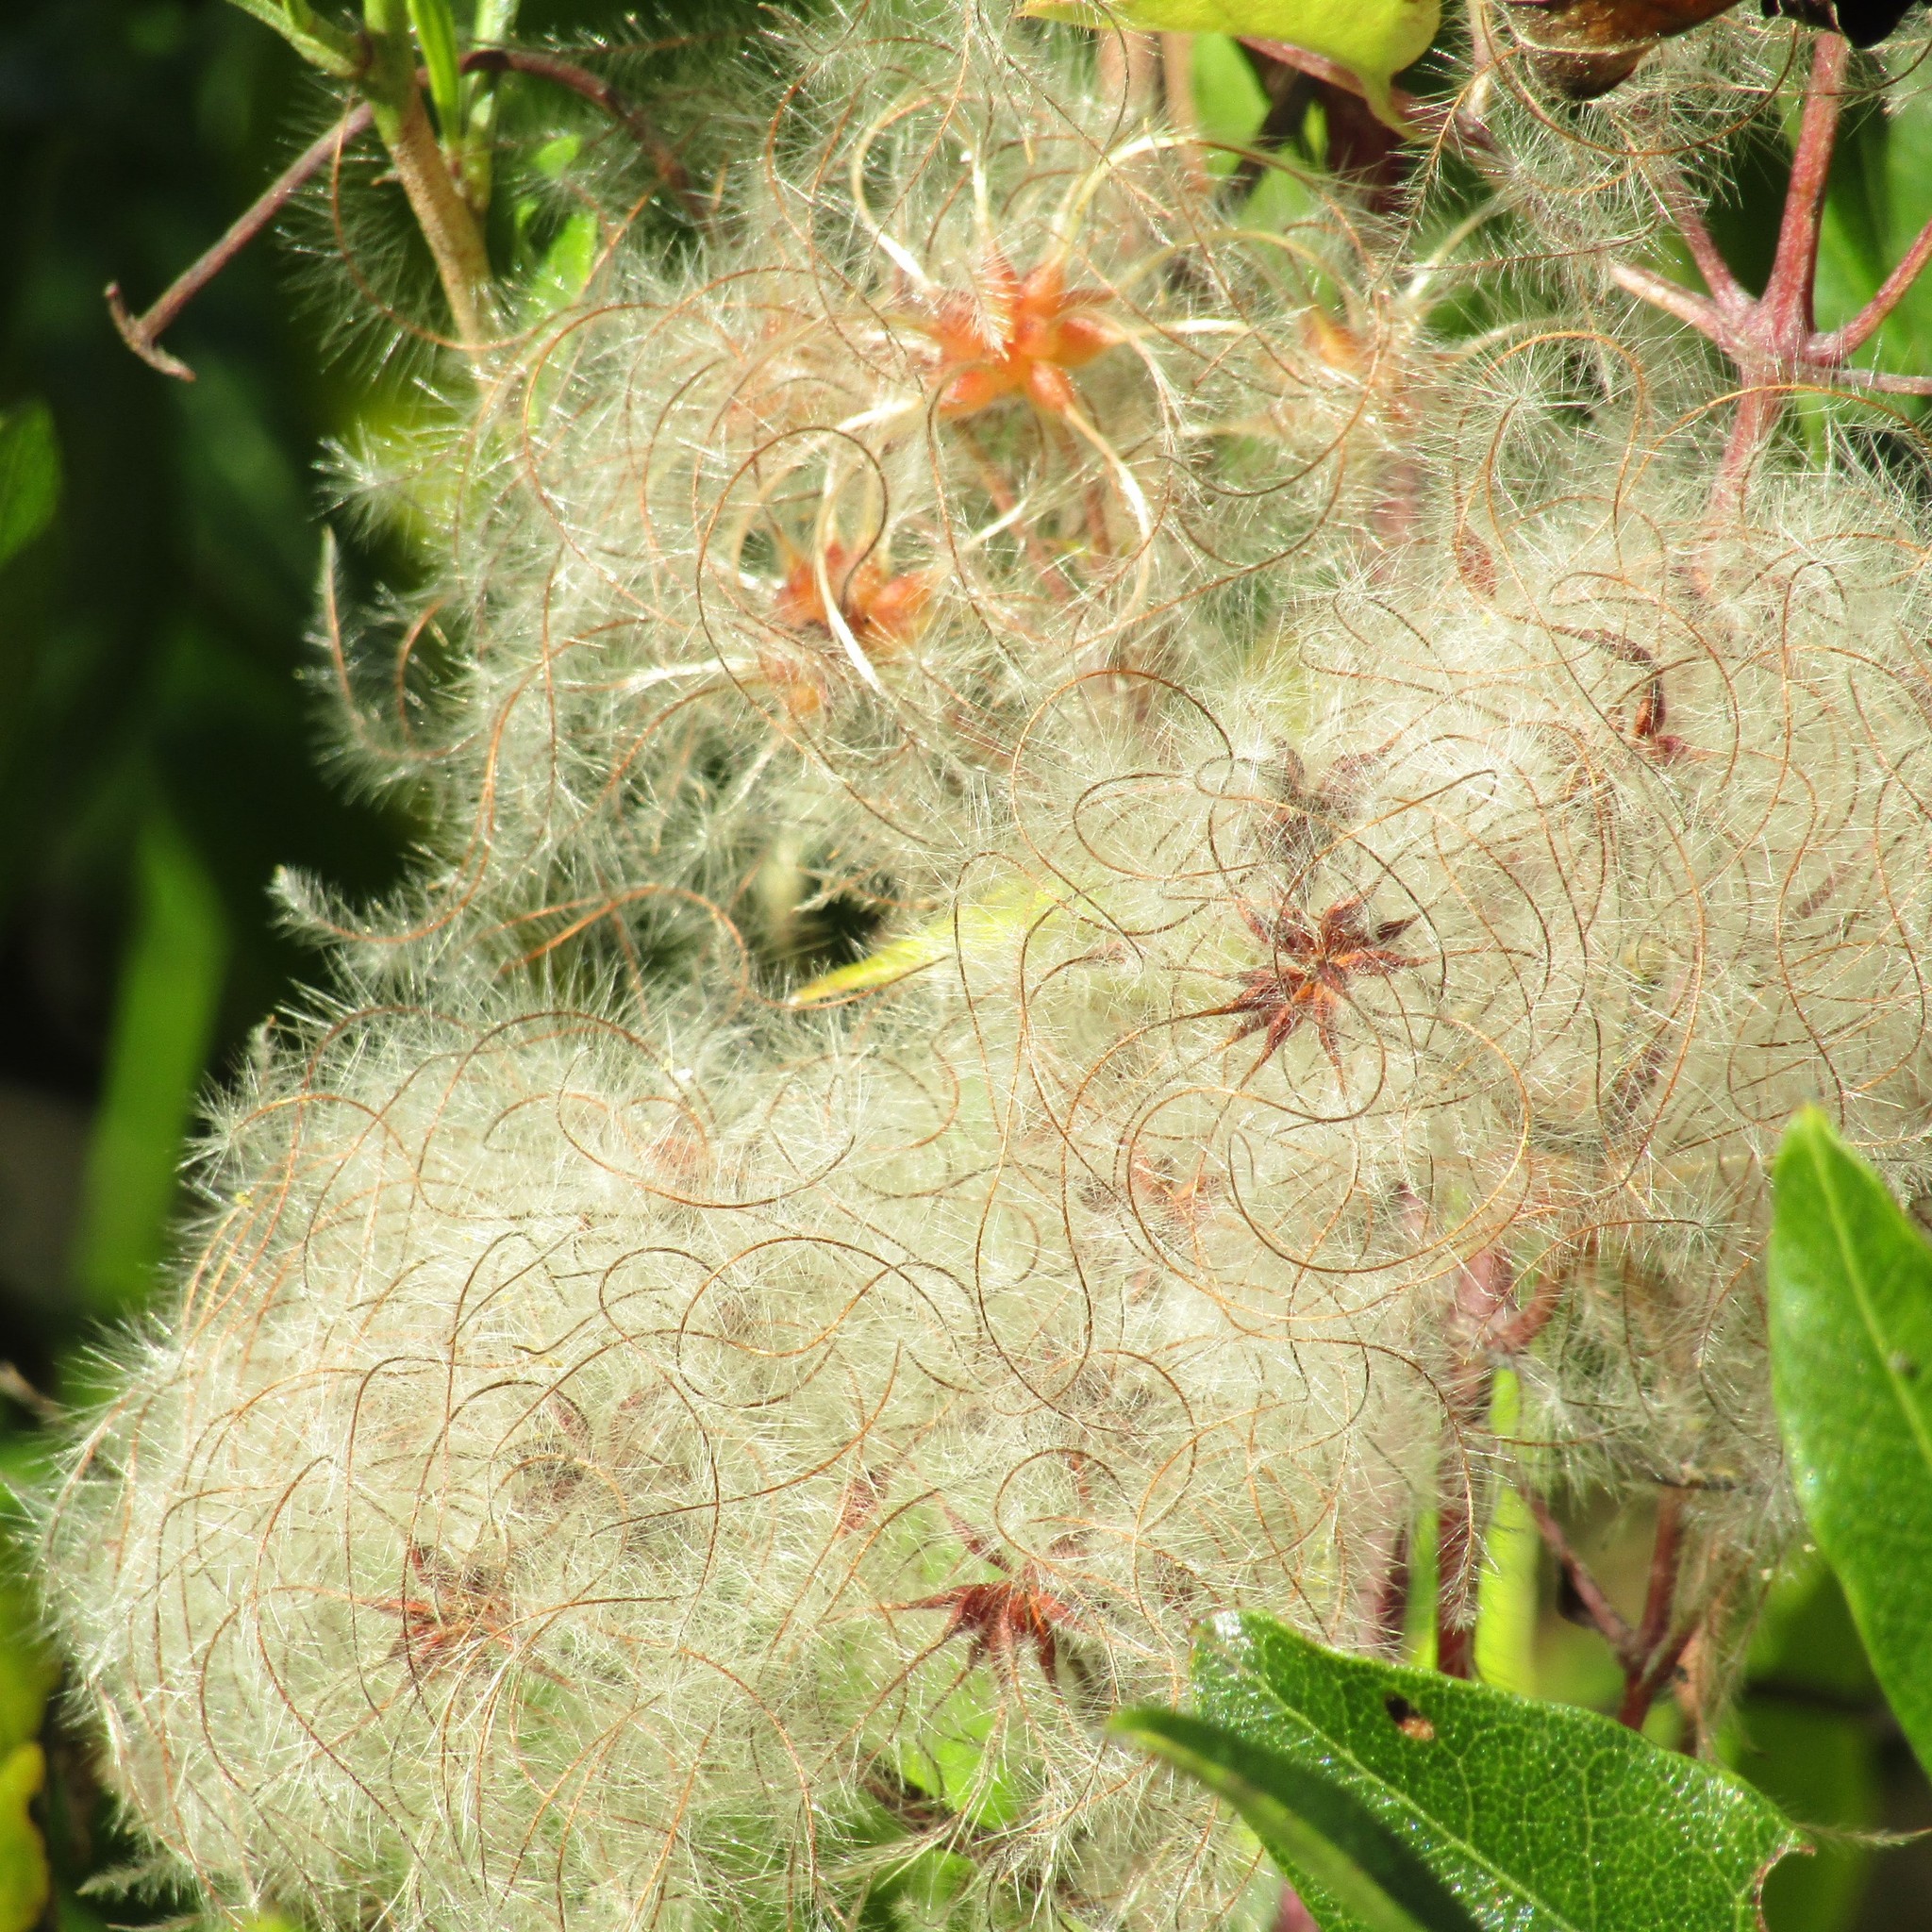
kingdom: Plantae
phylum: Tracheophyta
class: Magnoliopsida
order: Ranunculales
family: Ranunculaceae
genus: Clematis
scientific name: Clematis vitalba
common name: Evergreen clematis
